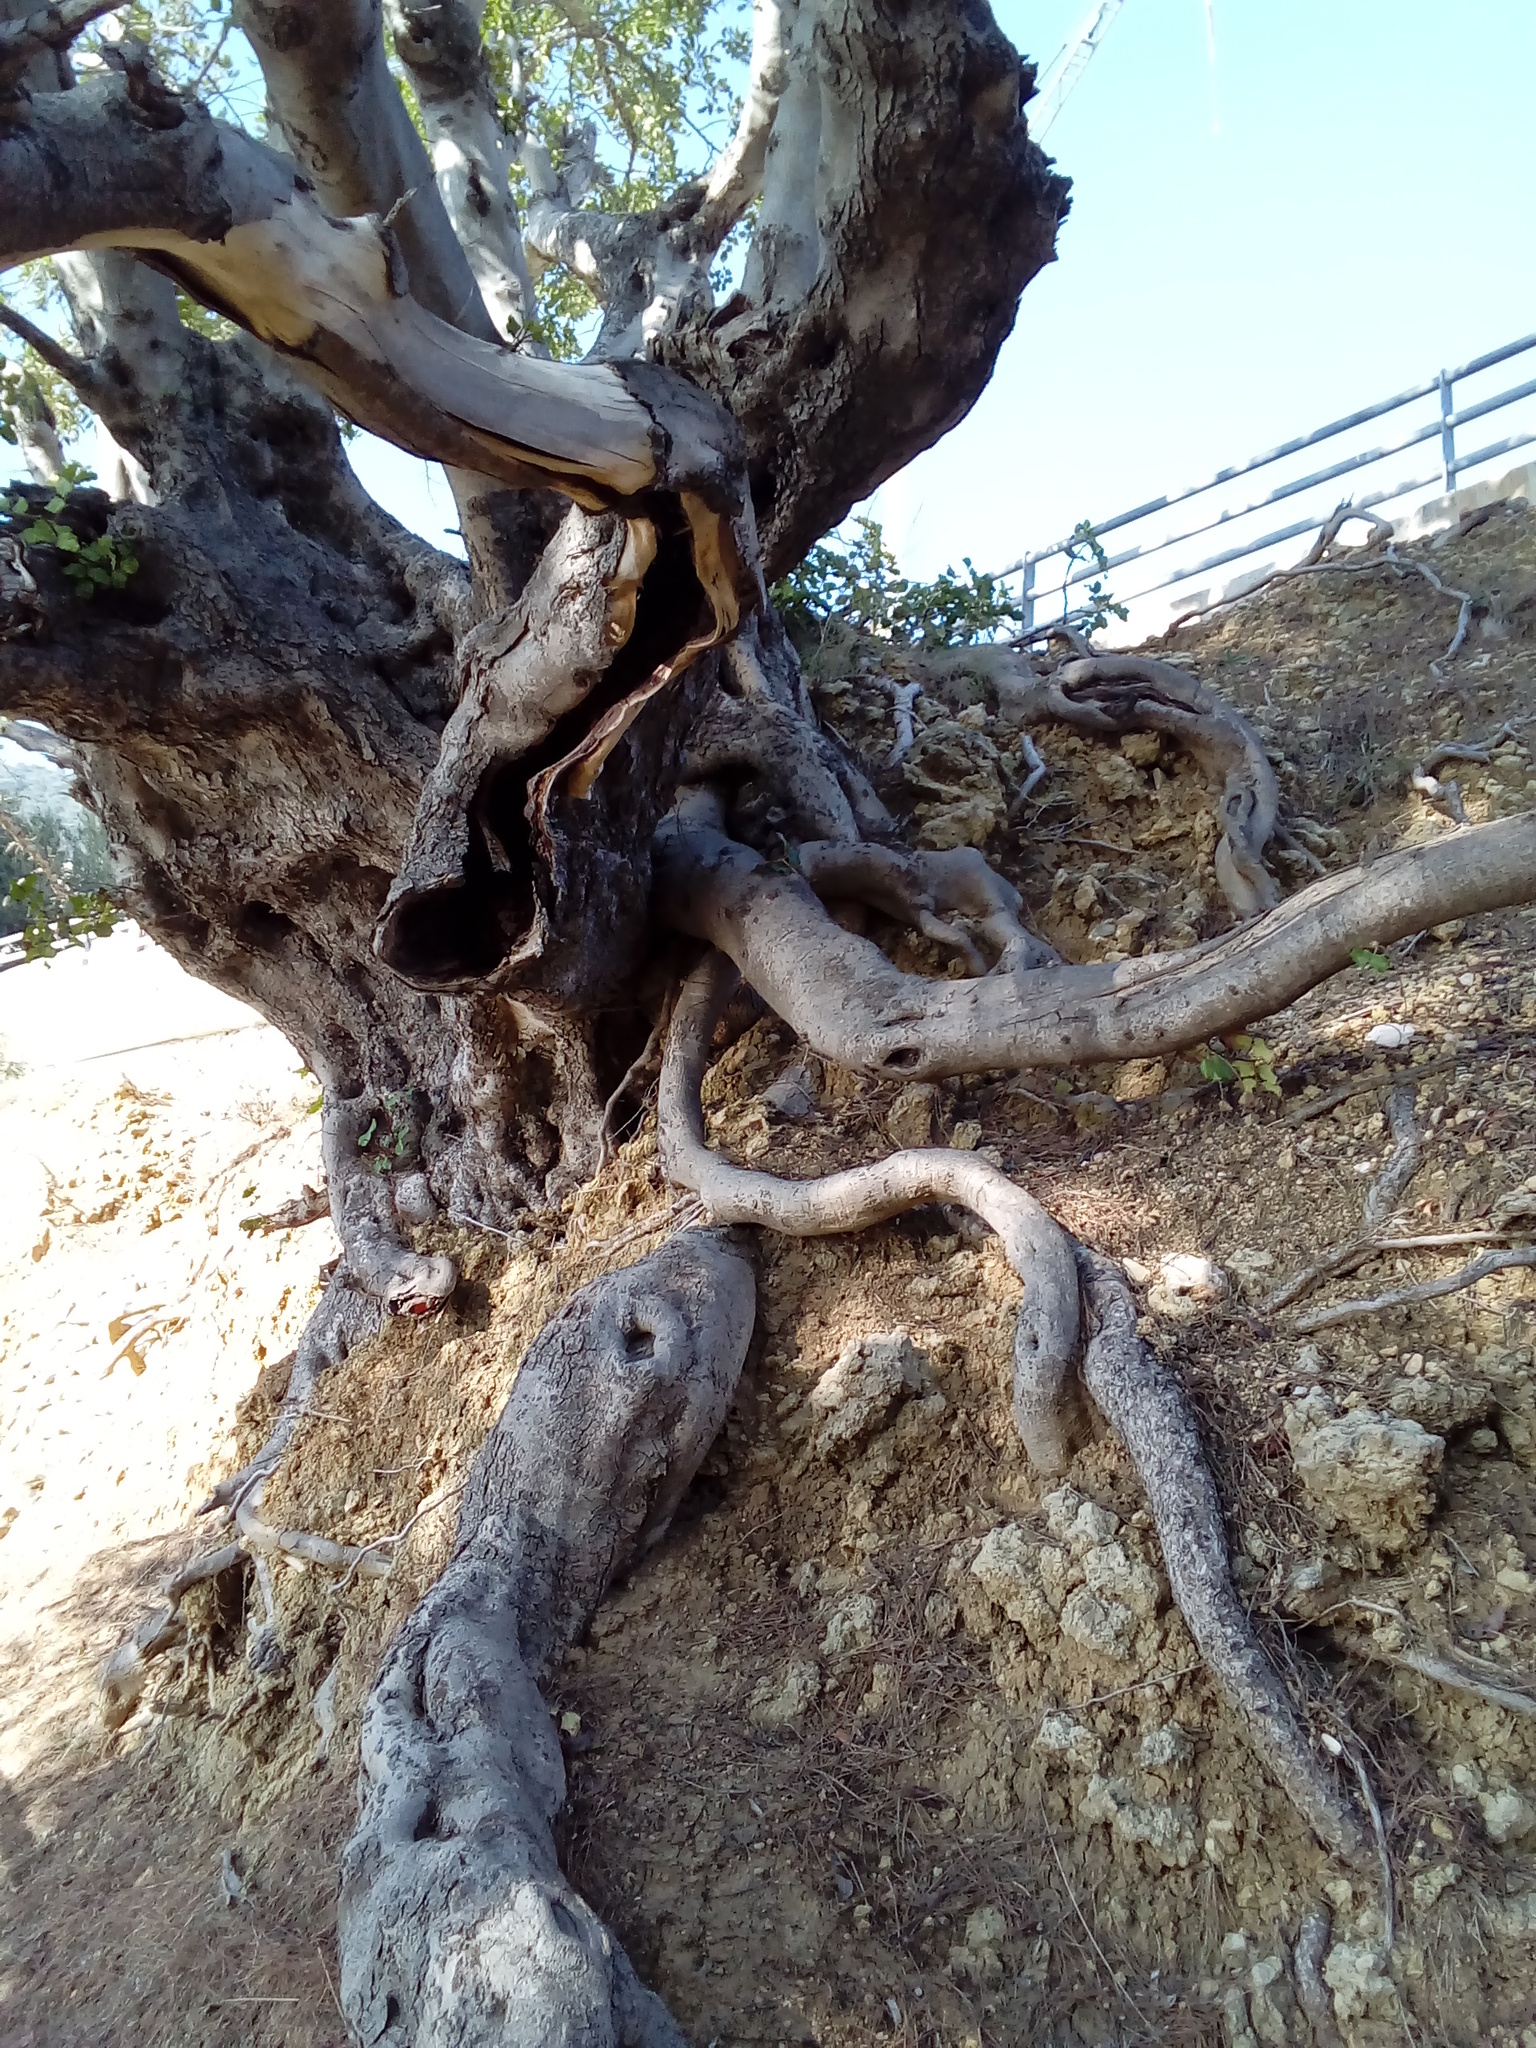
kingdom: Plantae
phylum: Tracheophyta
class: Magnoliopsida
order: Fabales
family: Fabaceae
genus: Ceratonia
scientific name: Ceratonia siliqua
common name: Carob
